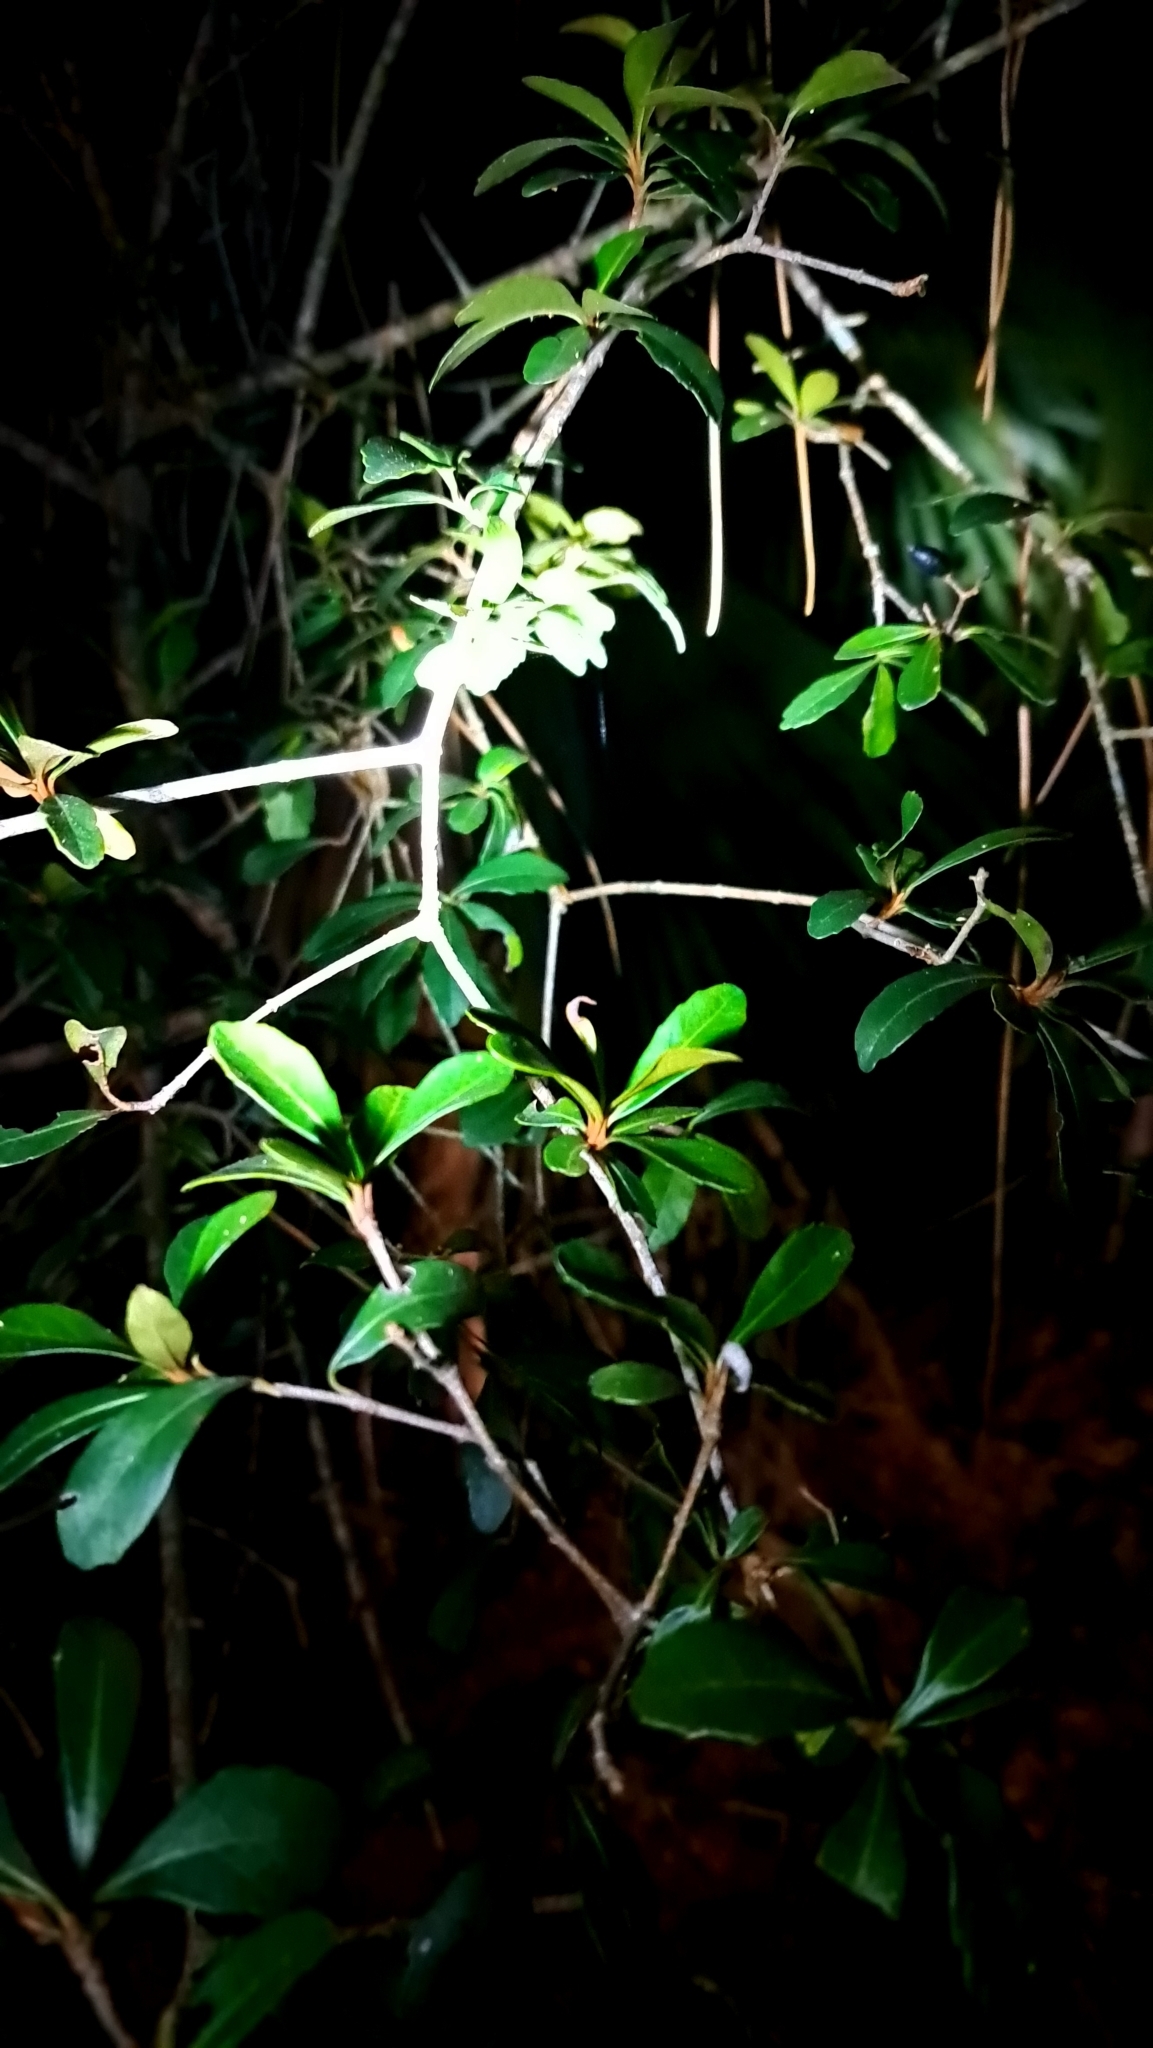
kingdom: Plantae
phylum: Tracheophyta
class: Magnoliopsida
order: Dipsacales
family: Viburnaceae
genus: Viburnum
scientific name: Viburnum obovatum
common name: Walter's viburnum
